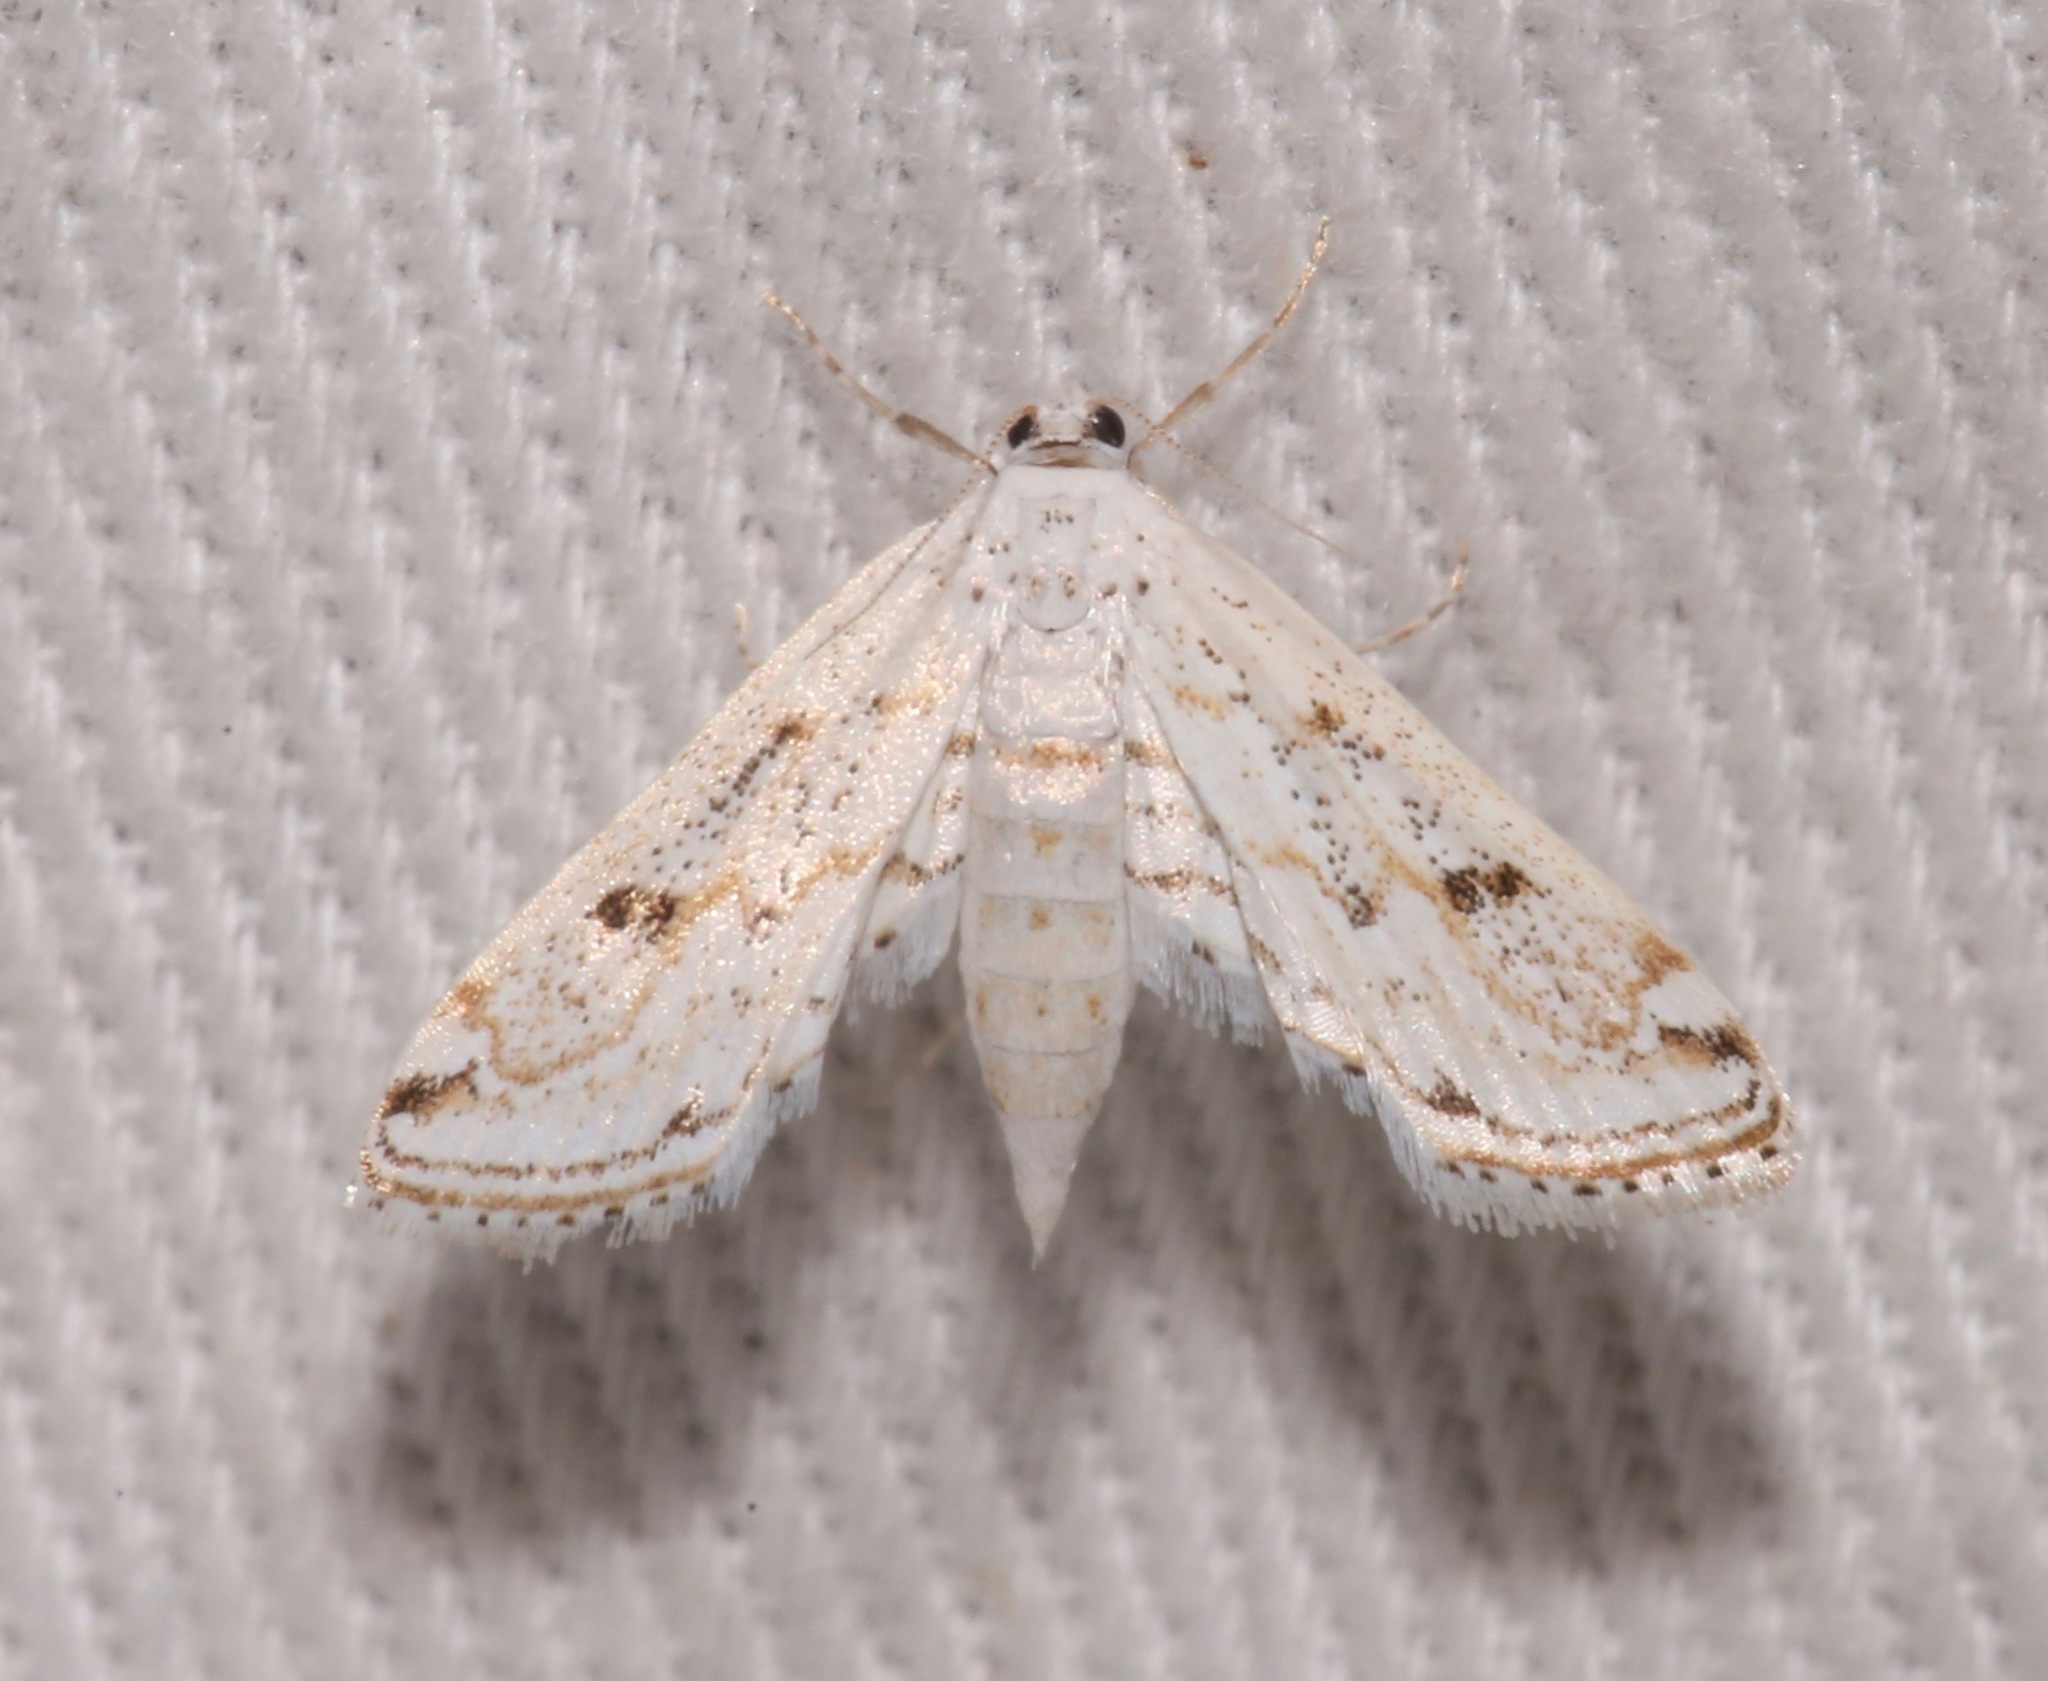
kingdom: Animalia
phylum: Arthropoda
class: Insecta
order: Lepidoptera
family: Crambidae
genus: Parapoynx
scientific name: Parapoynx allionealis
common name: Bladderwort casemaker
